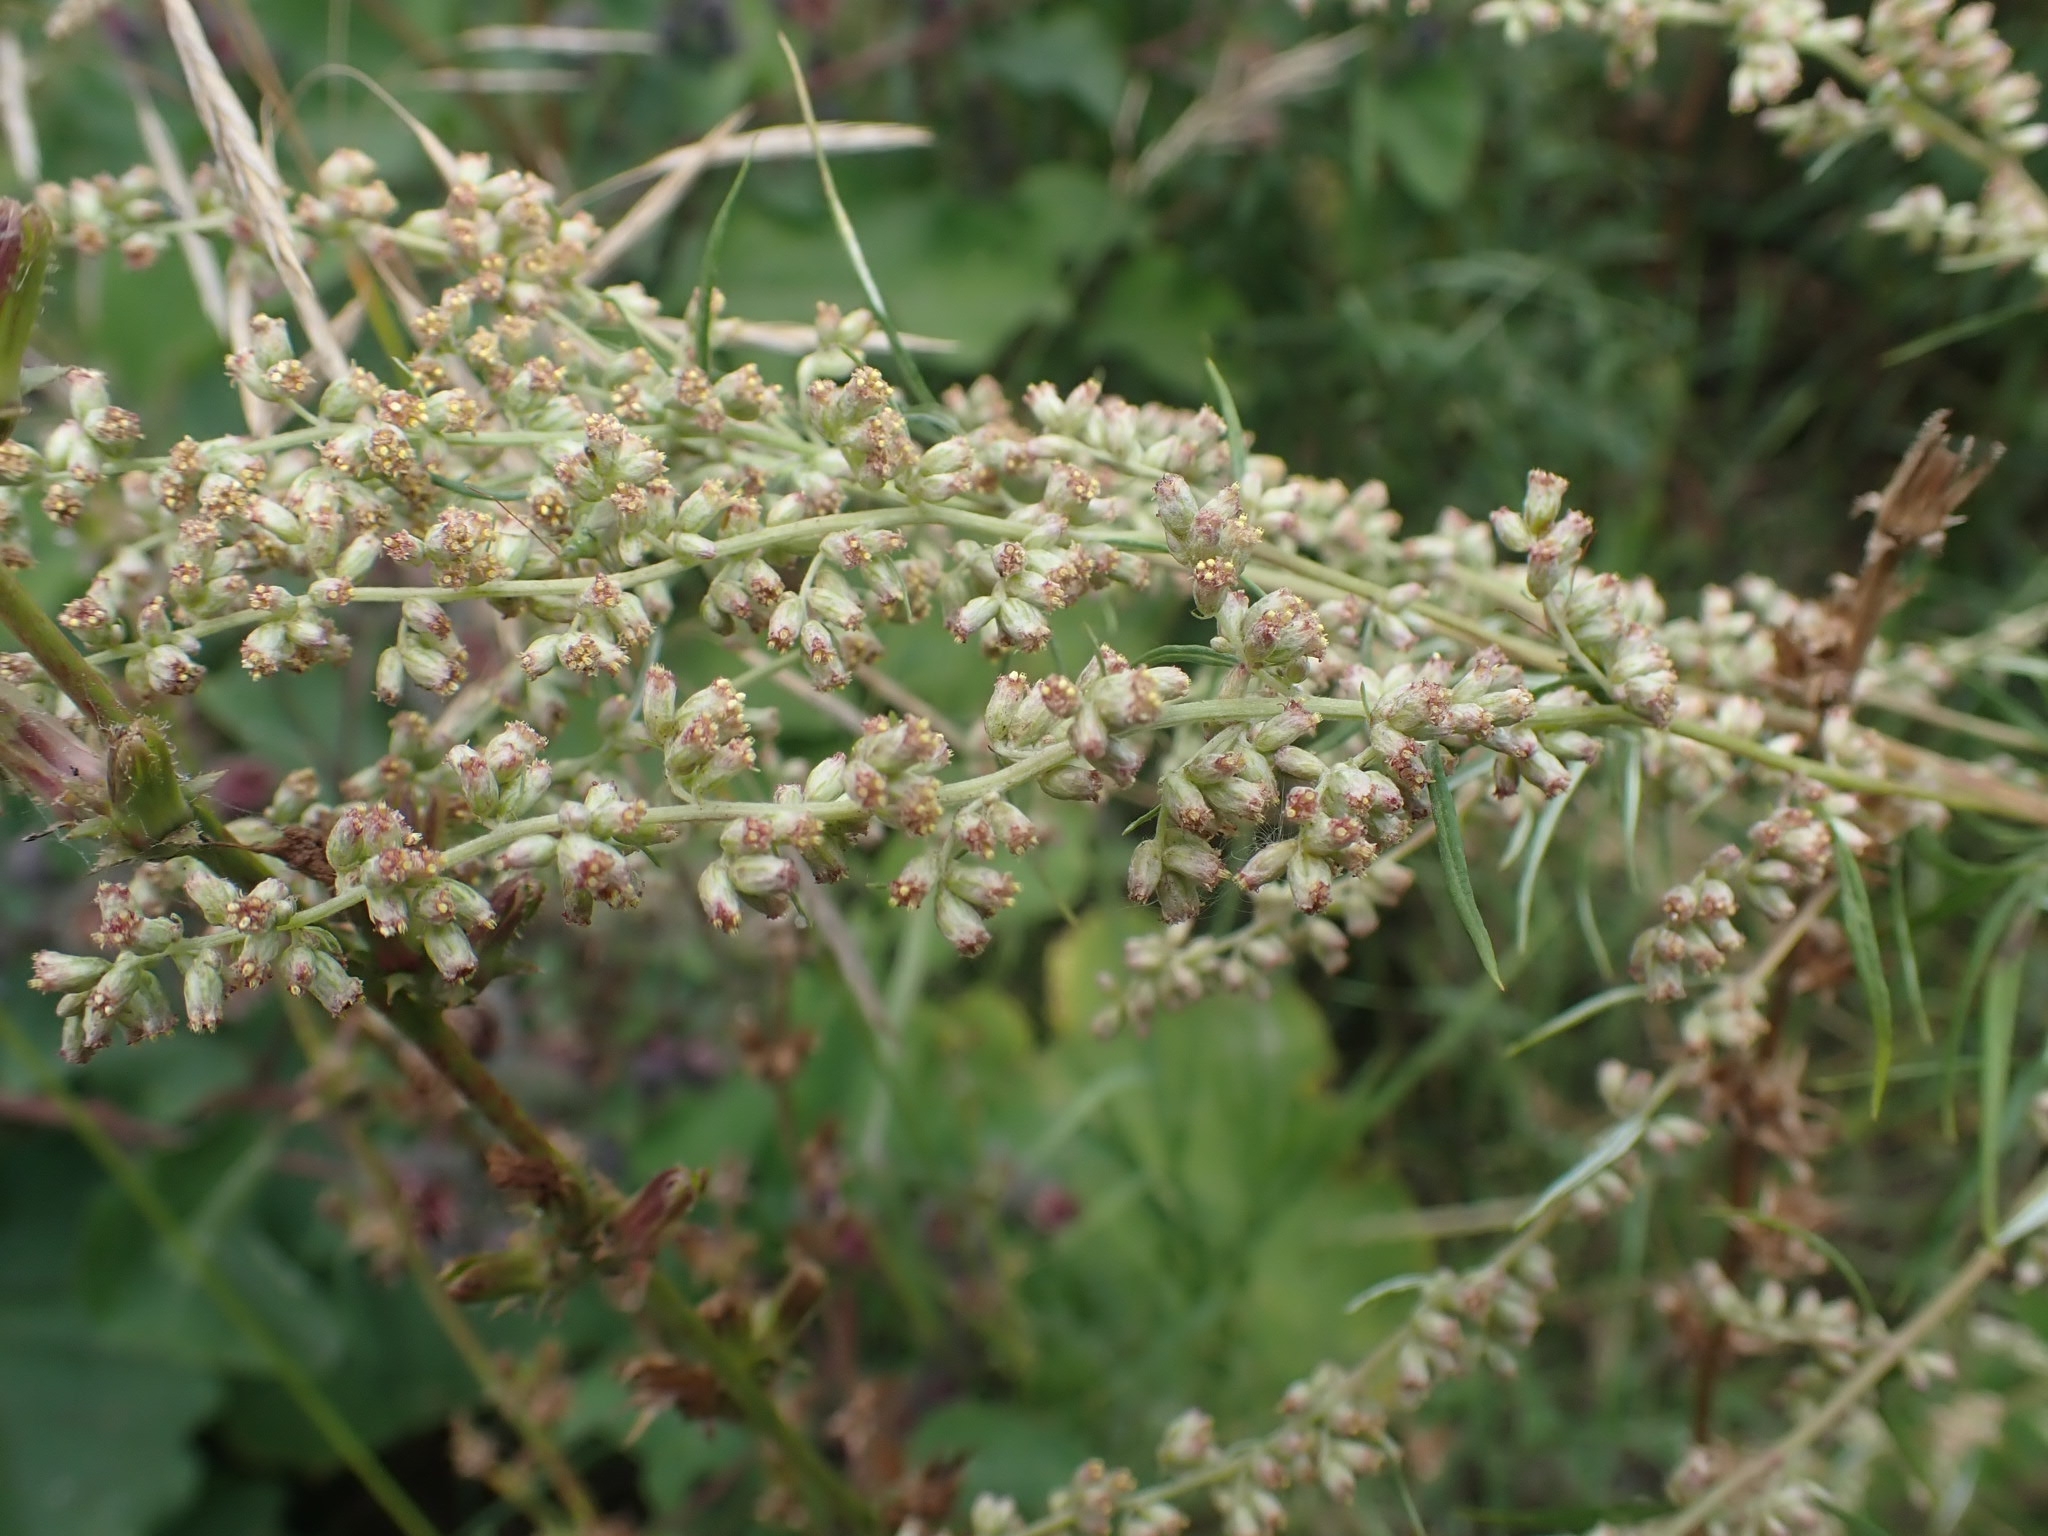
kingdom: Plantae
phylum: Tracheophyta
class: Magnoliopsida
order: Asterales
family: Asteraceae
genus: Artemisia
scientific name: Artemisia vulgaris
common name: Mugwort
